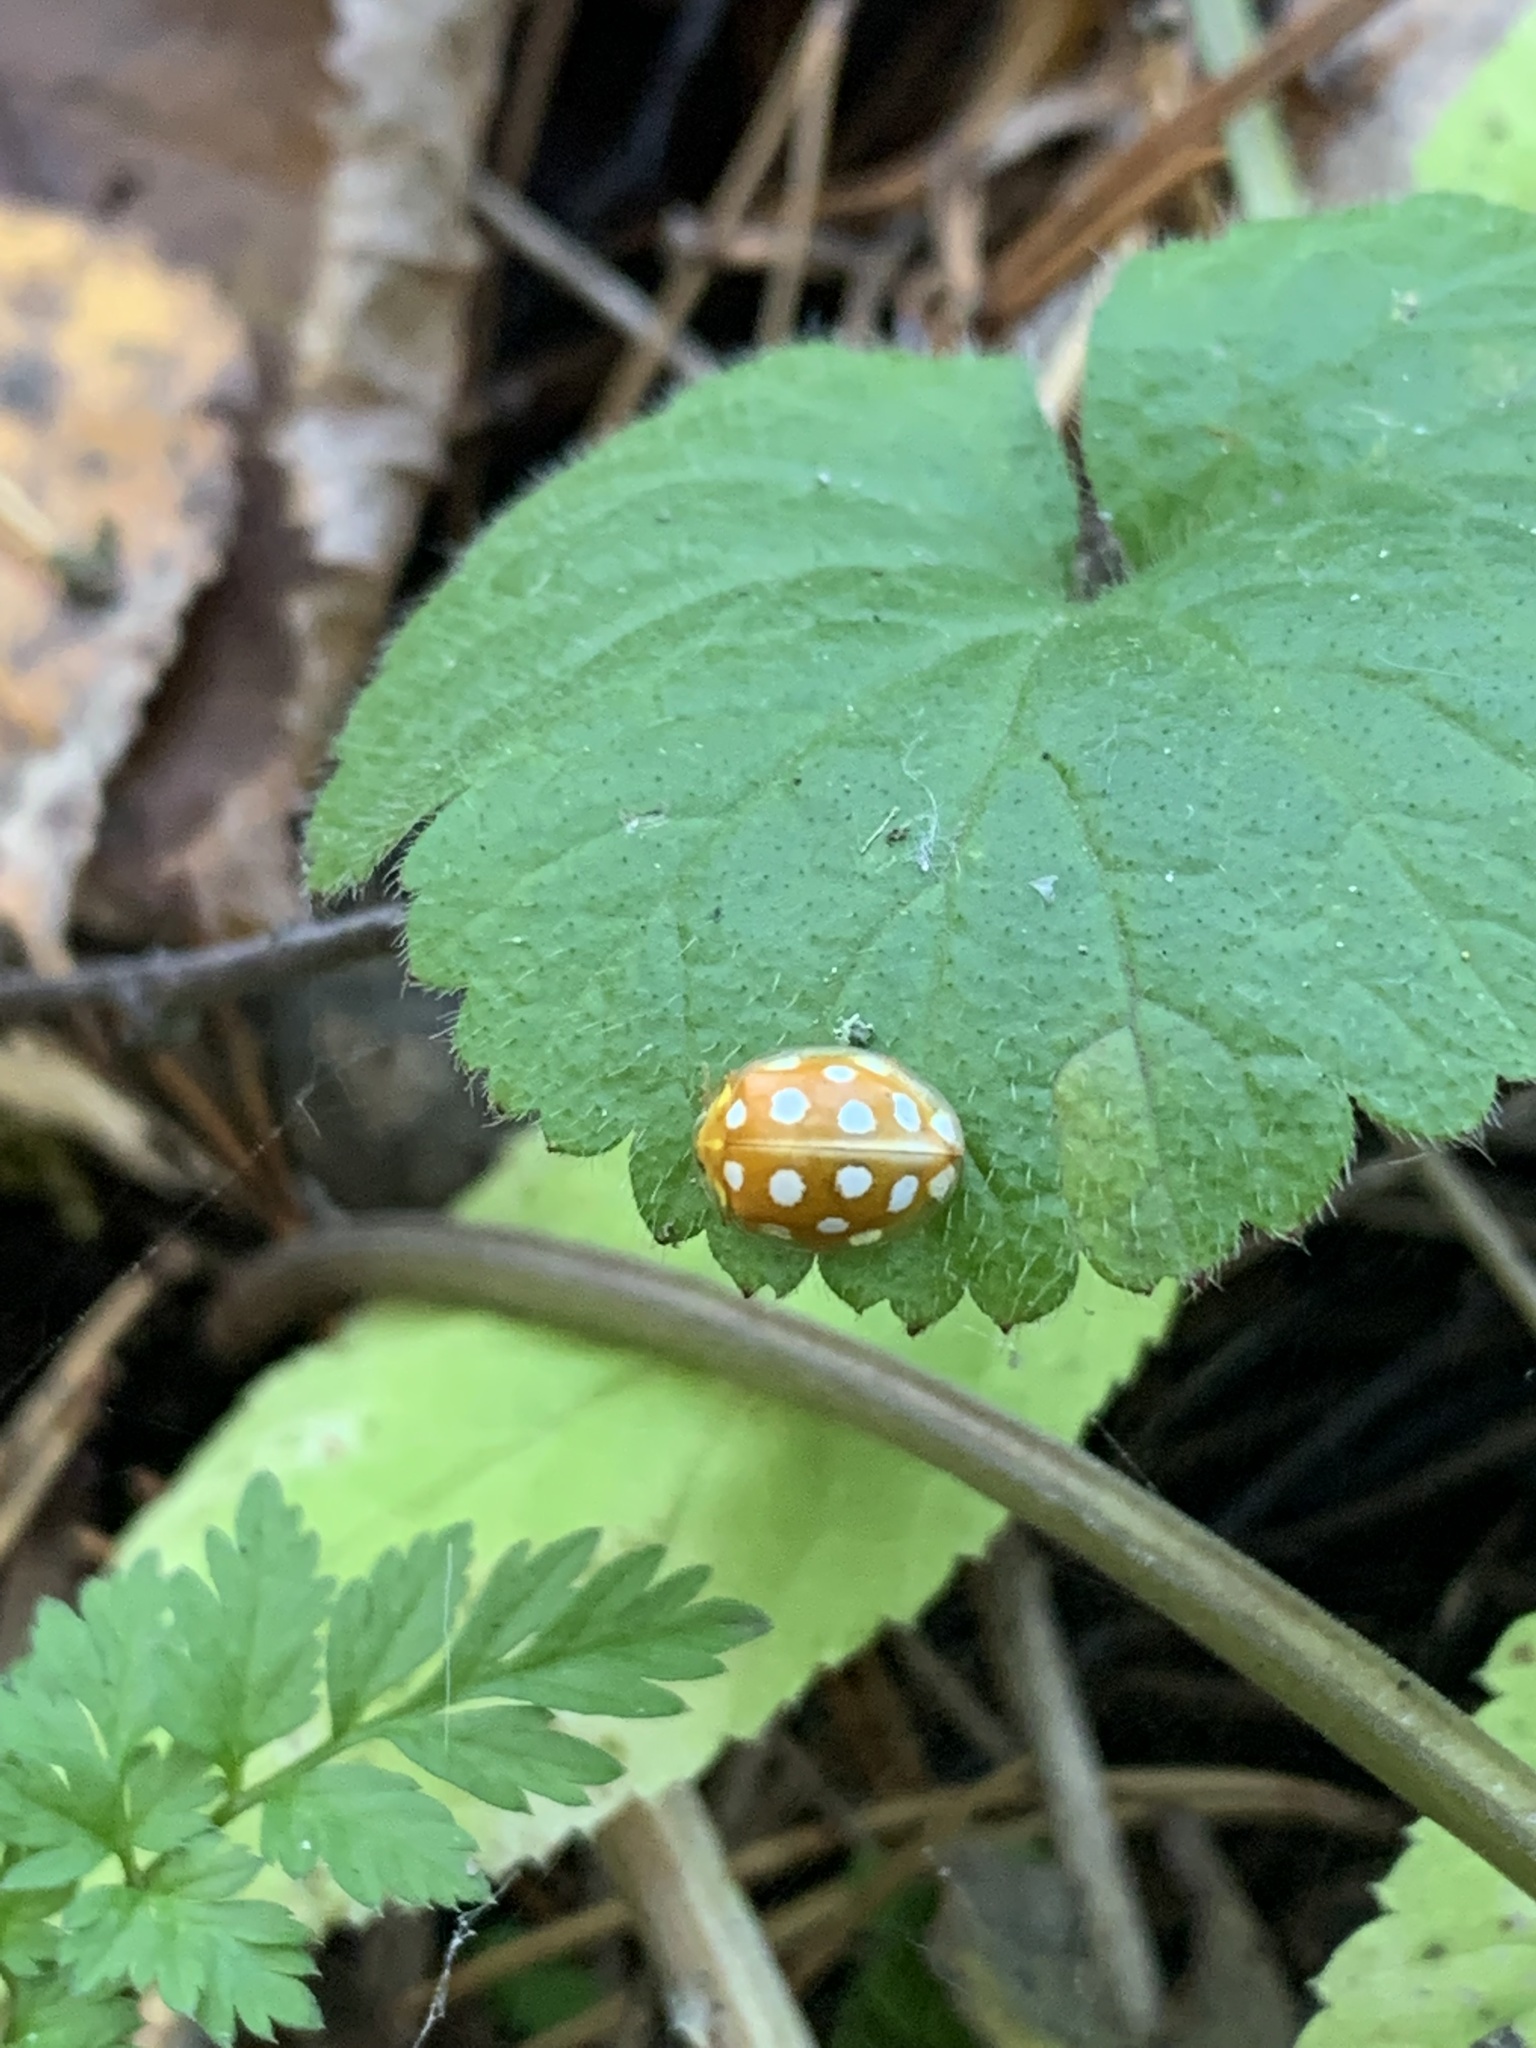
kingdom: Animalia
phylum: Arthropoda
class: Insecta
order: Coleoptera
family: Coccinellidae
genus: Halyzia
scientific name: Halyzia sedecimguttata
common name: Orange ladybird
